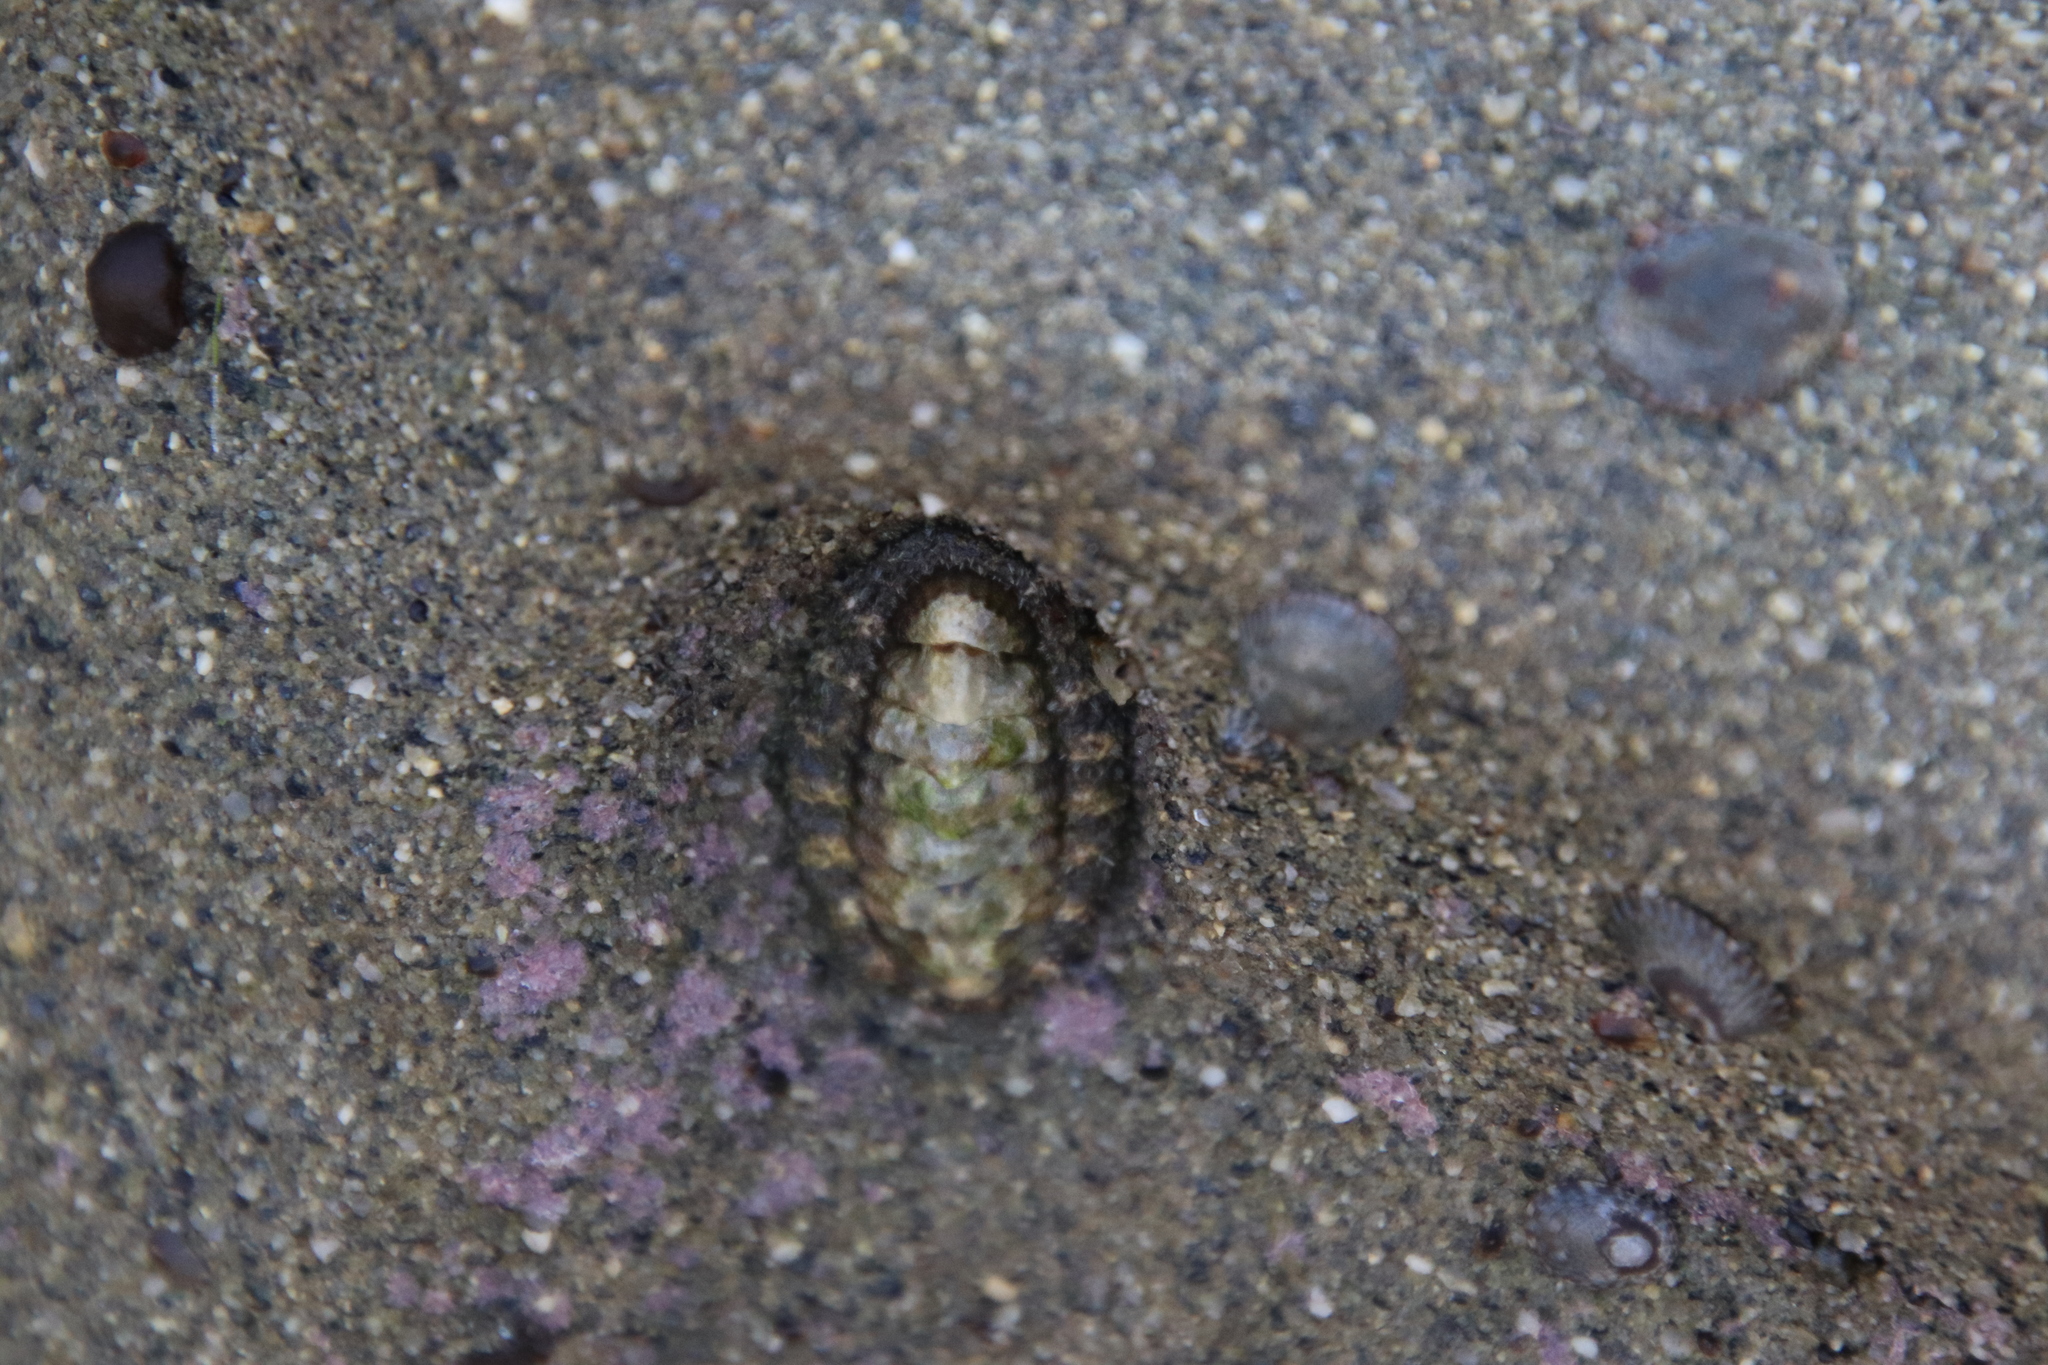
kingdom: Animalia
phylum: Mollusca
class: Polyplacophora
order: Chitonida
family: Tonicellidae
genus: Nuttallina
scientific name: Nuttallina californica
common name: California nuttall chiton
